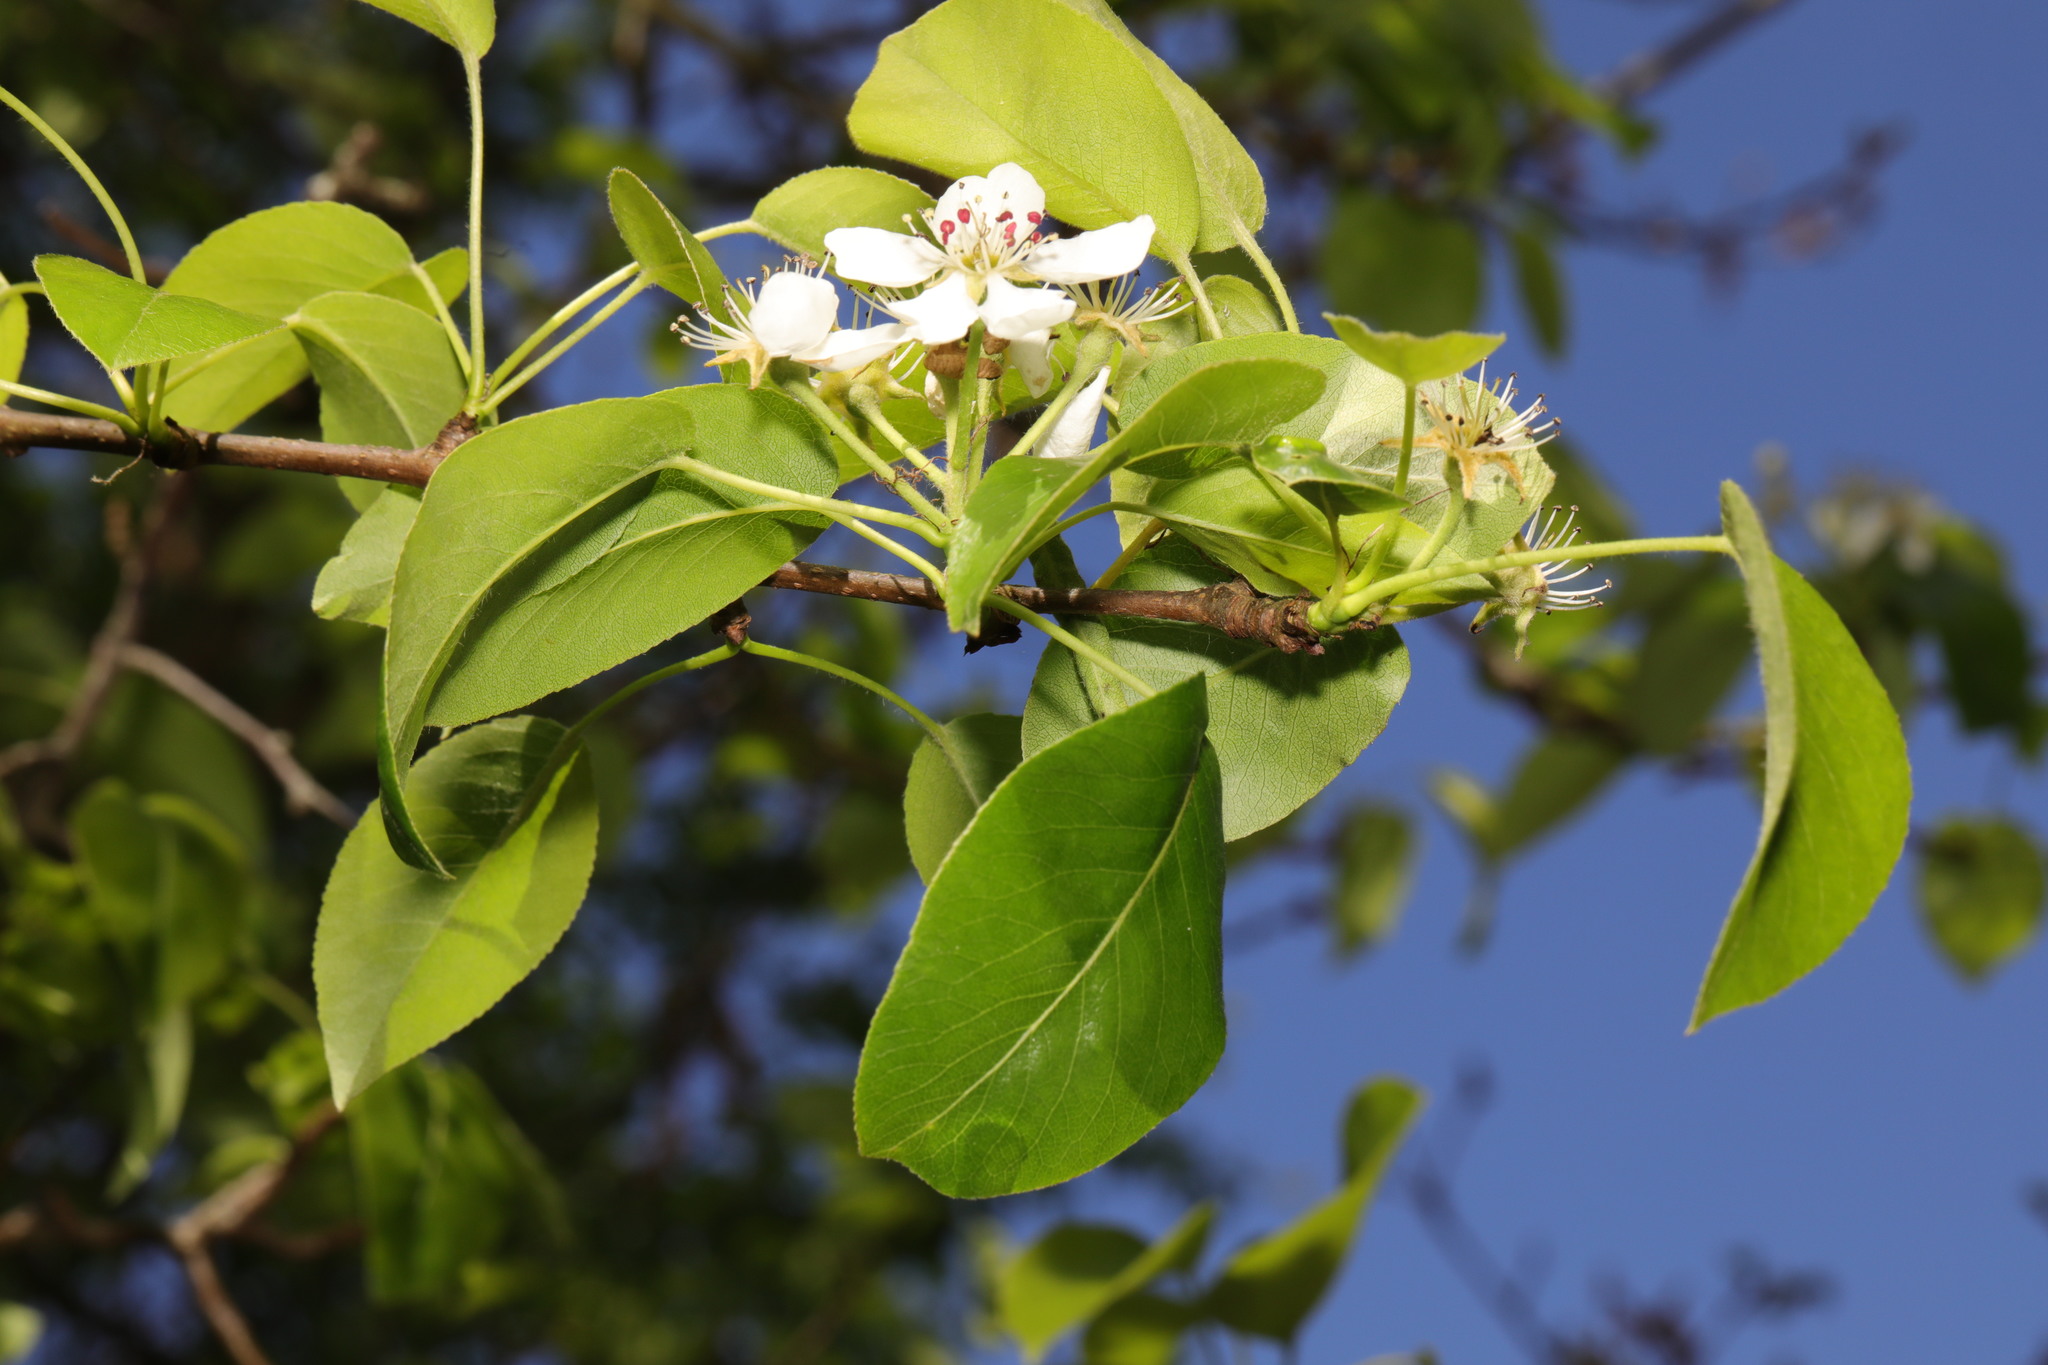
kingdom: Plantae
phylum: Tracheophyta
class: Magnoliopsida
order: Rosales
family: Rosaceae
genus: Pyrus
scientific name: Pyrus communis
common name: Pear
